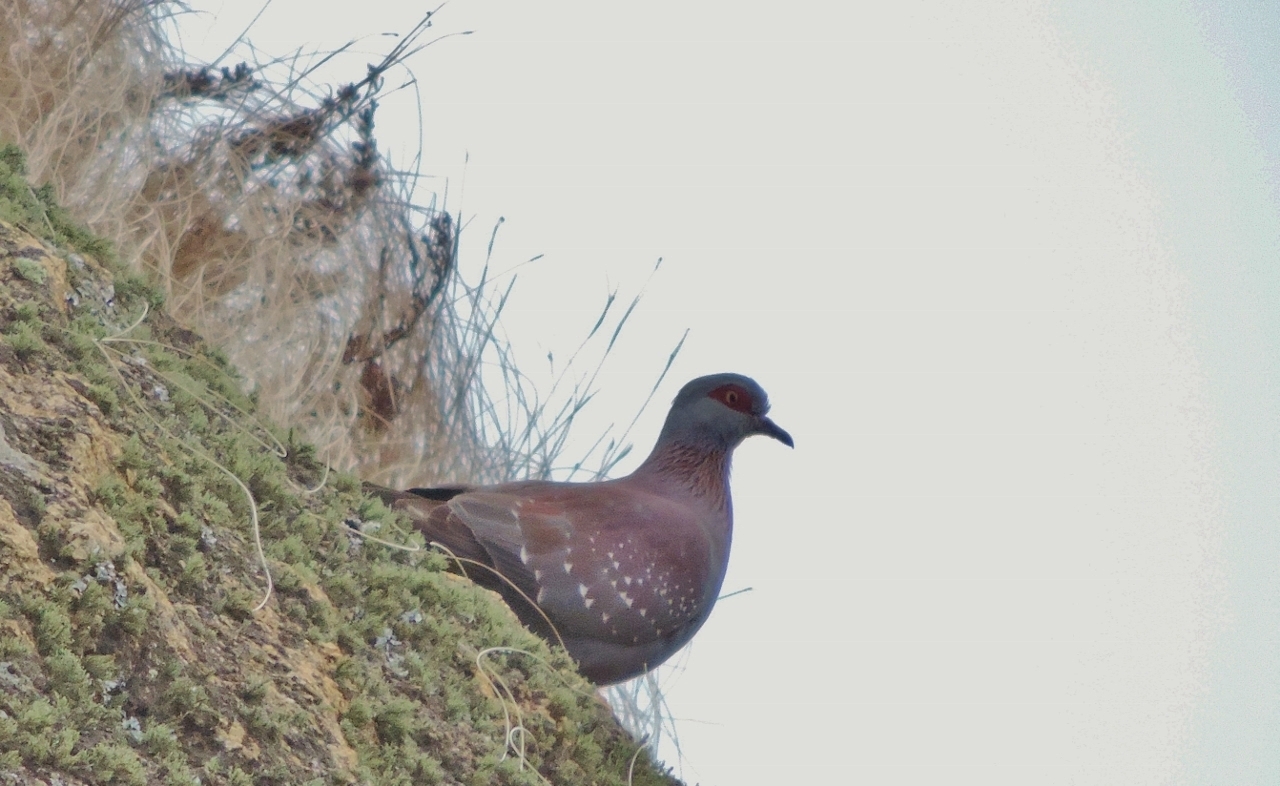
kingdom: Animalia
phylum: Chordata
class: Aves
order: Columbiformes
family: Columbidae
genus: Columba
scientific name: Columba guinea
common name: Speckled pigeon
